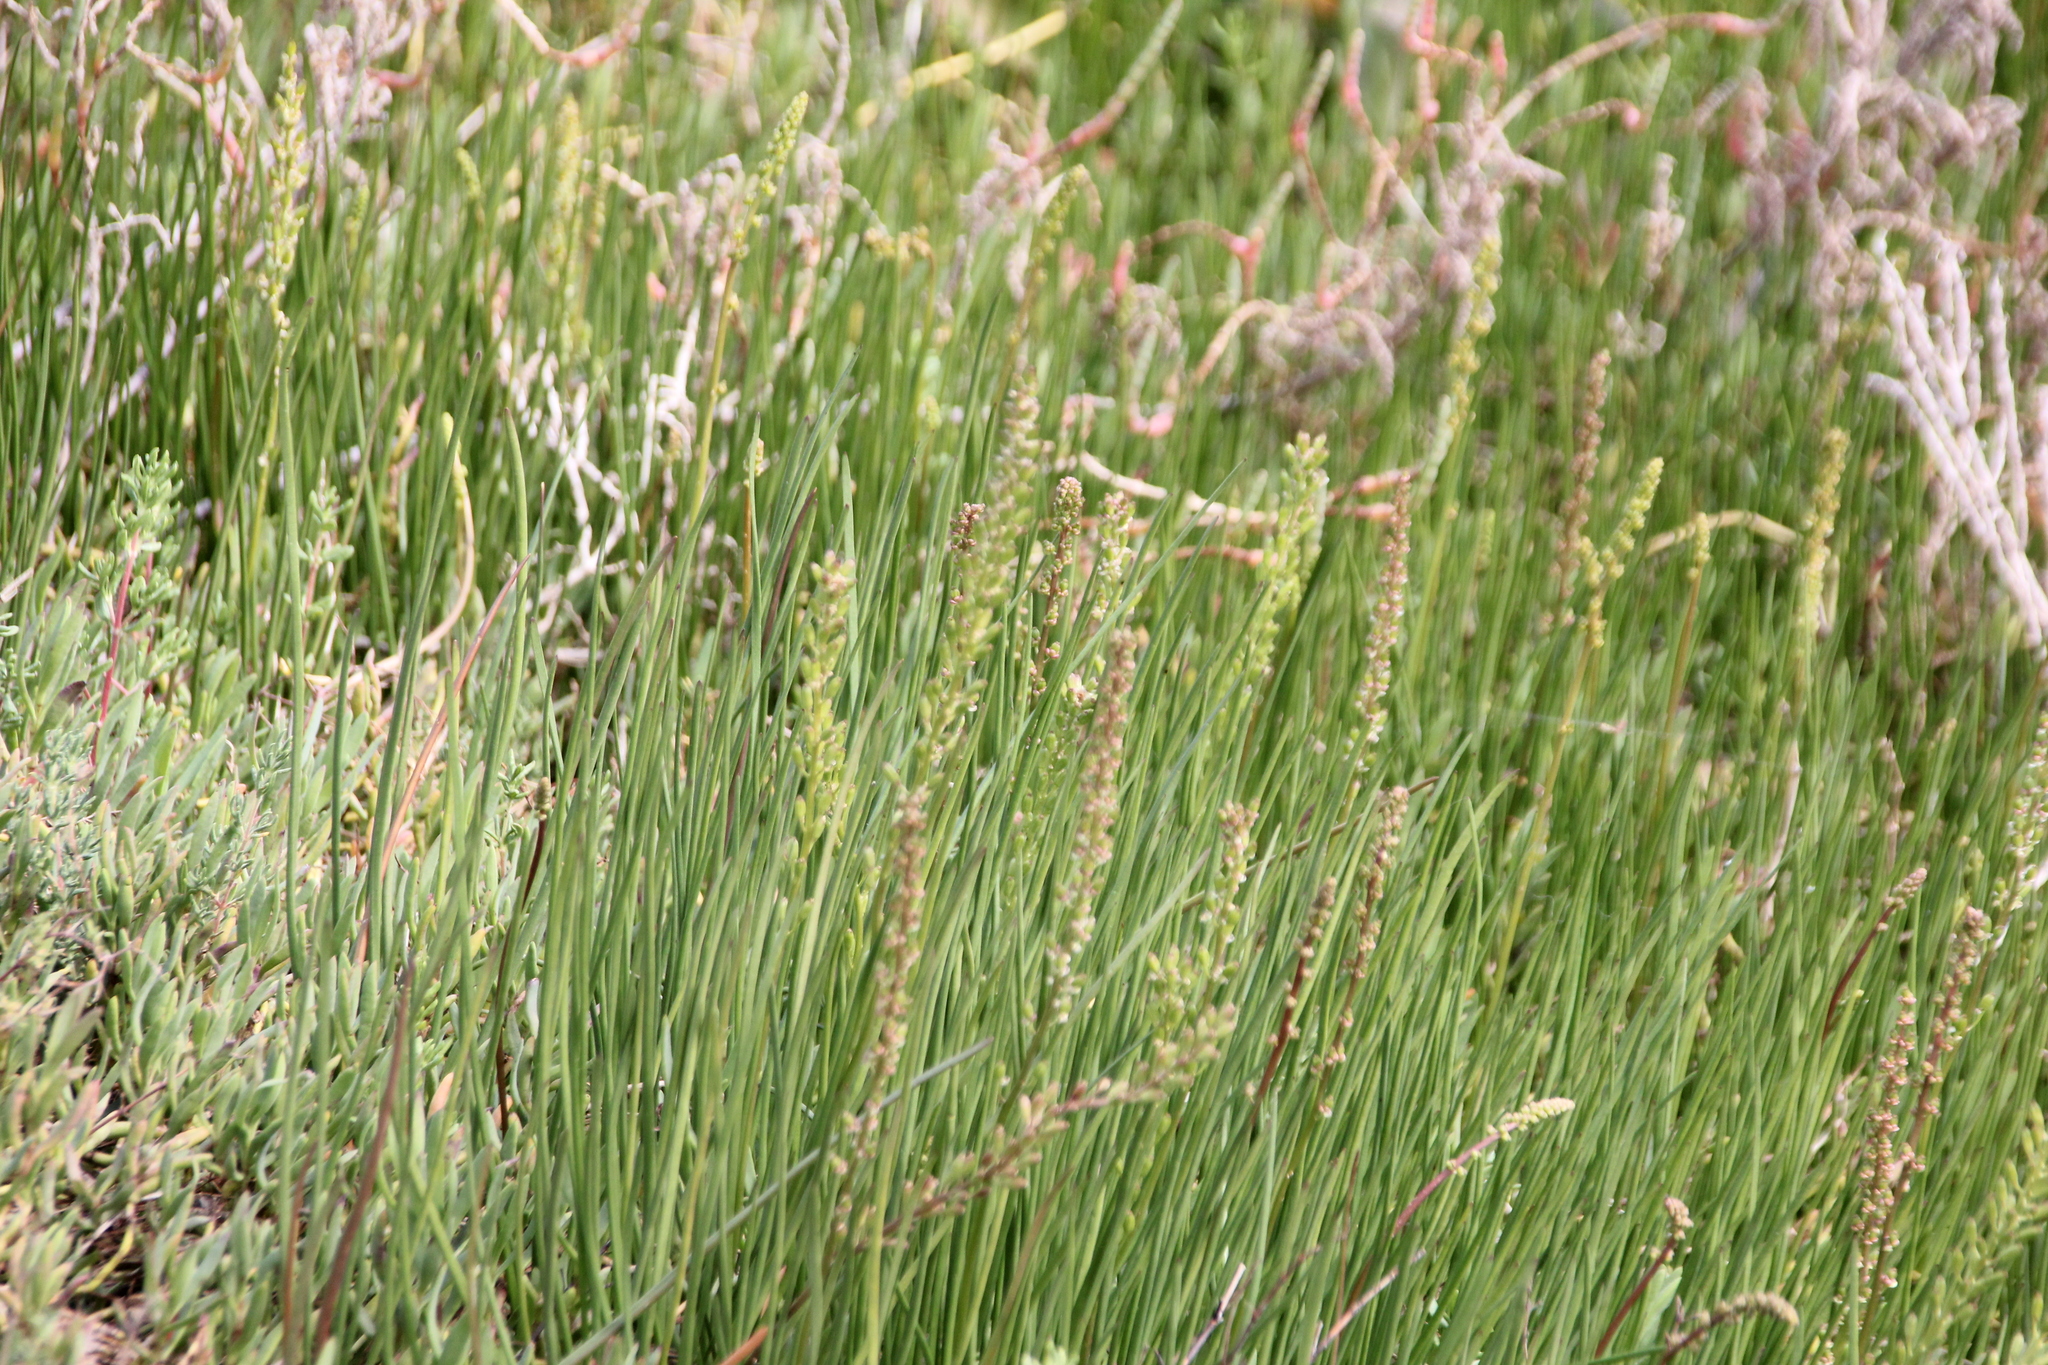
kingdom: Plantae
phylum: Tracheophyta
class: Liliopsida
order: Alismatales
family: Juncaginaceae
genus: Triglochin
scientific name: Triglochin maritima
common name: Sea arrowgrass
